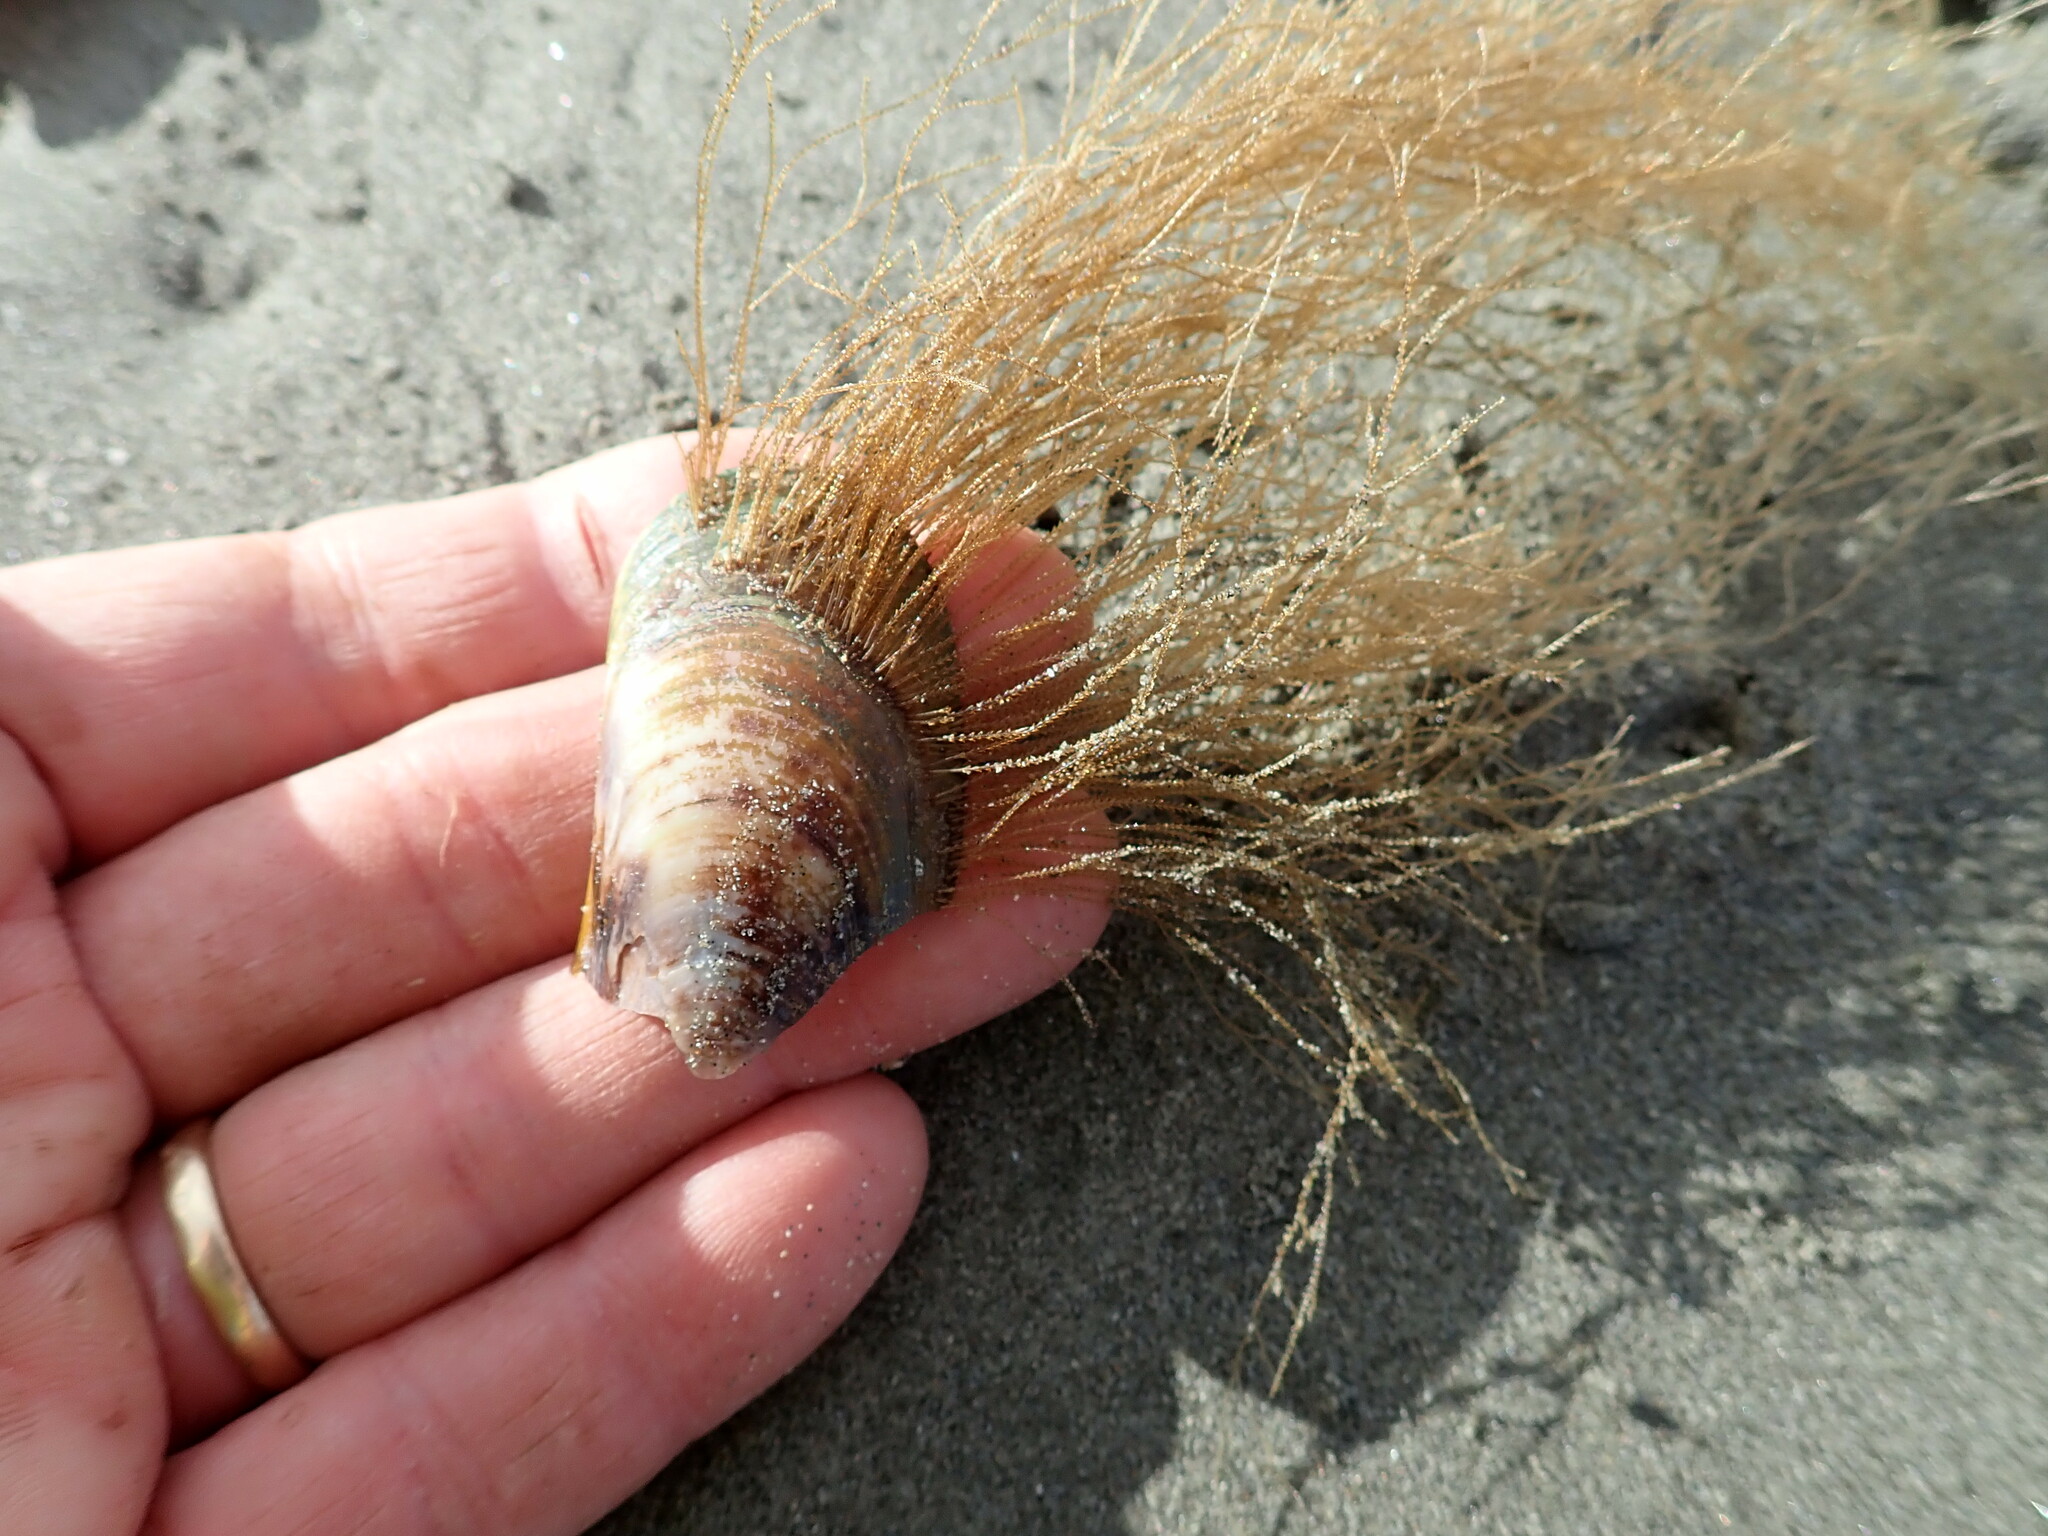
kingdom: Animalia
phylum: Cnidaria
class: Hydrozoa
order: Leptothecata
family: Sertulariidae
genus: Amphisbetia
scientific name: Amphisbetia bispinosa
